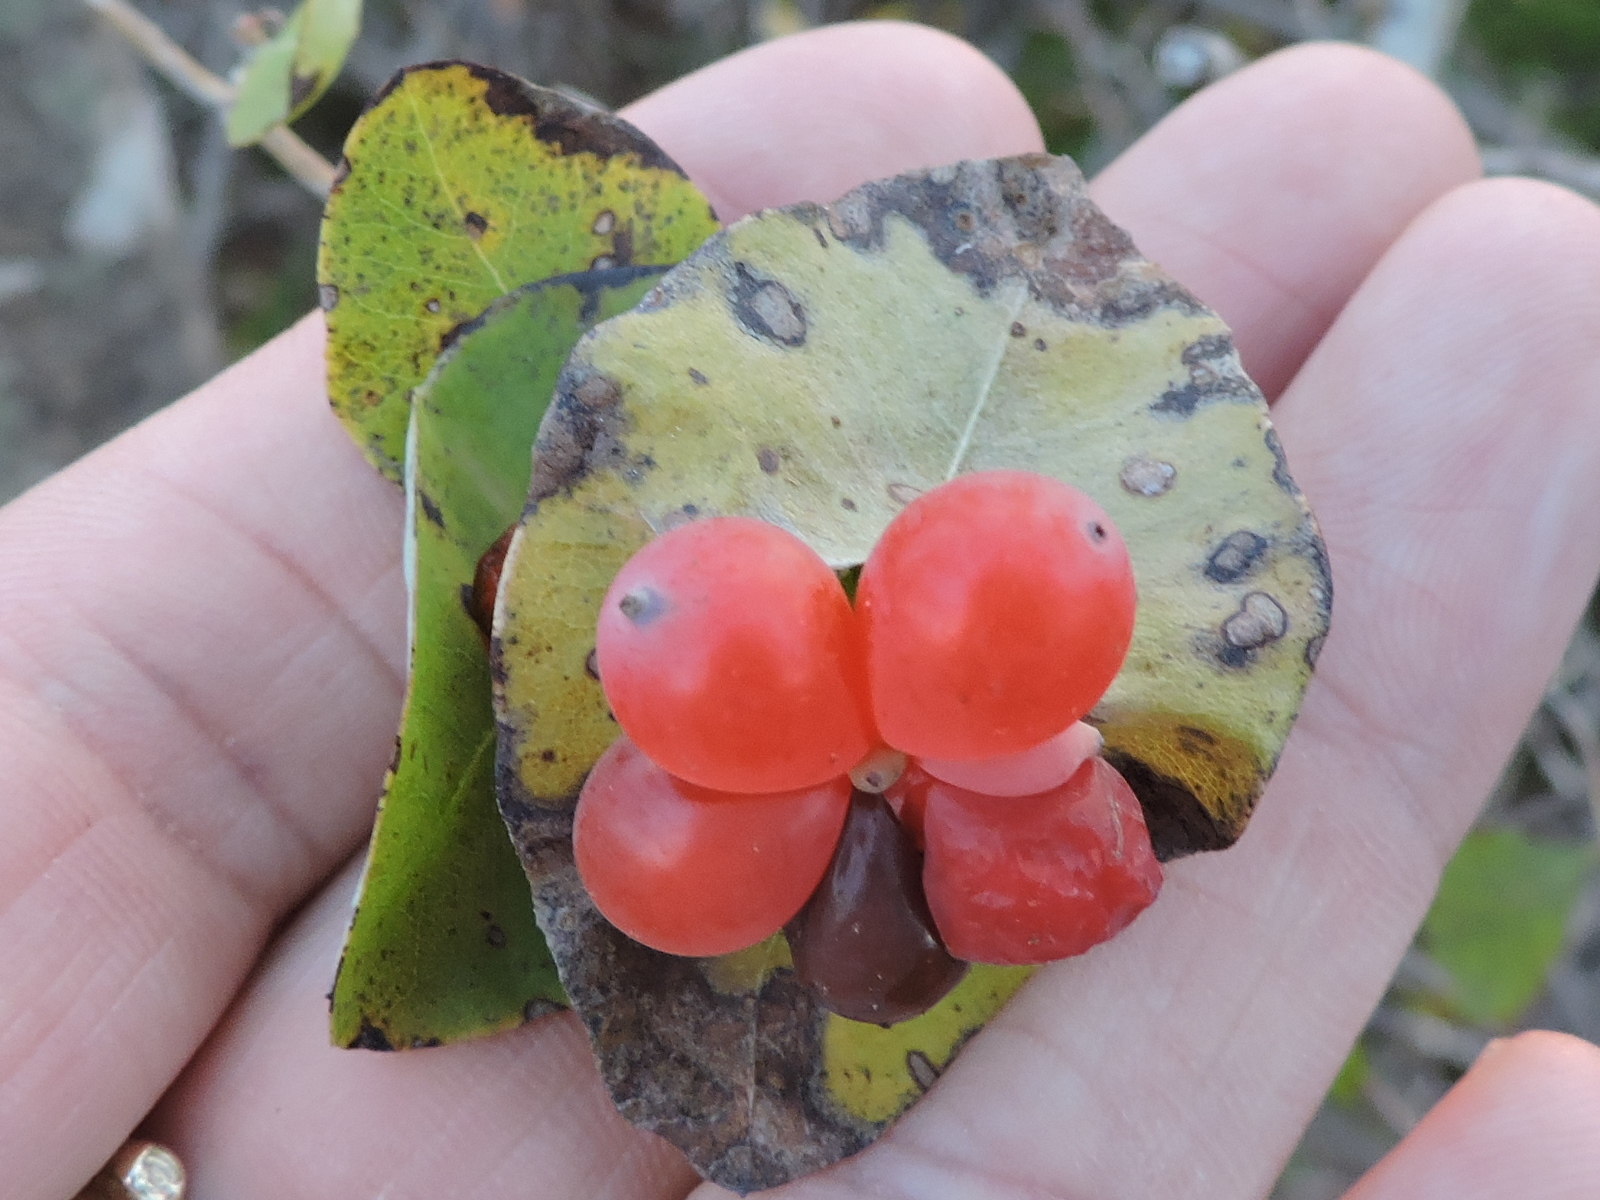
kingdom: Plantae
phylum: Tracheophyta
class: Magnoliopsida
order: Dipsacales
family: Caprifoliaceae
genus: Lonicera
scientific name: Lonicera albiflora
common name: White honeysuckle
